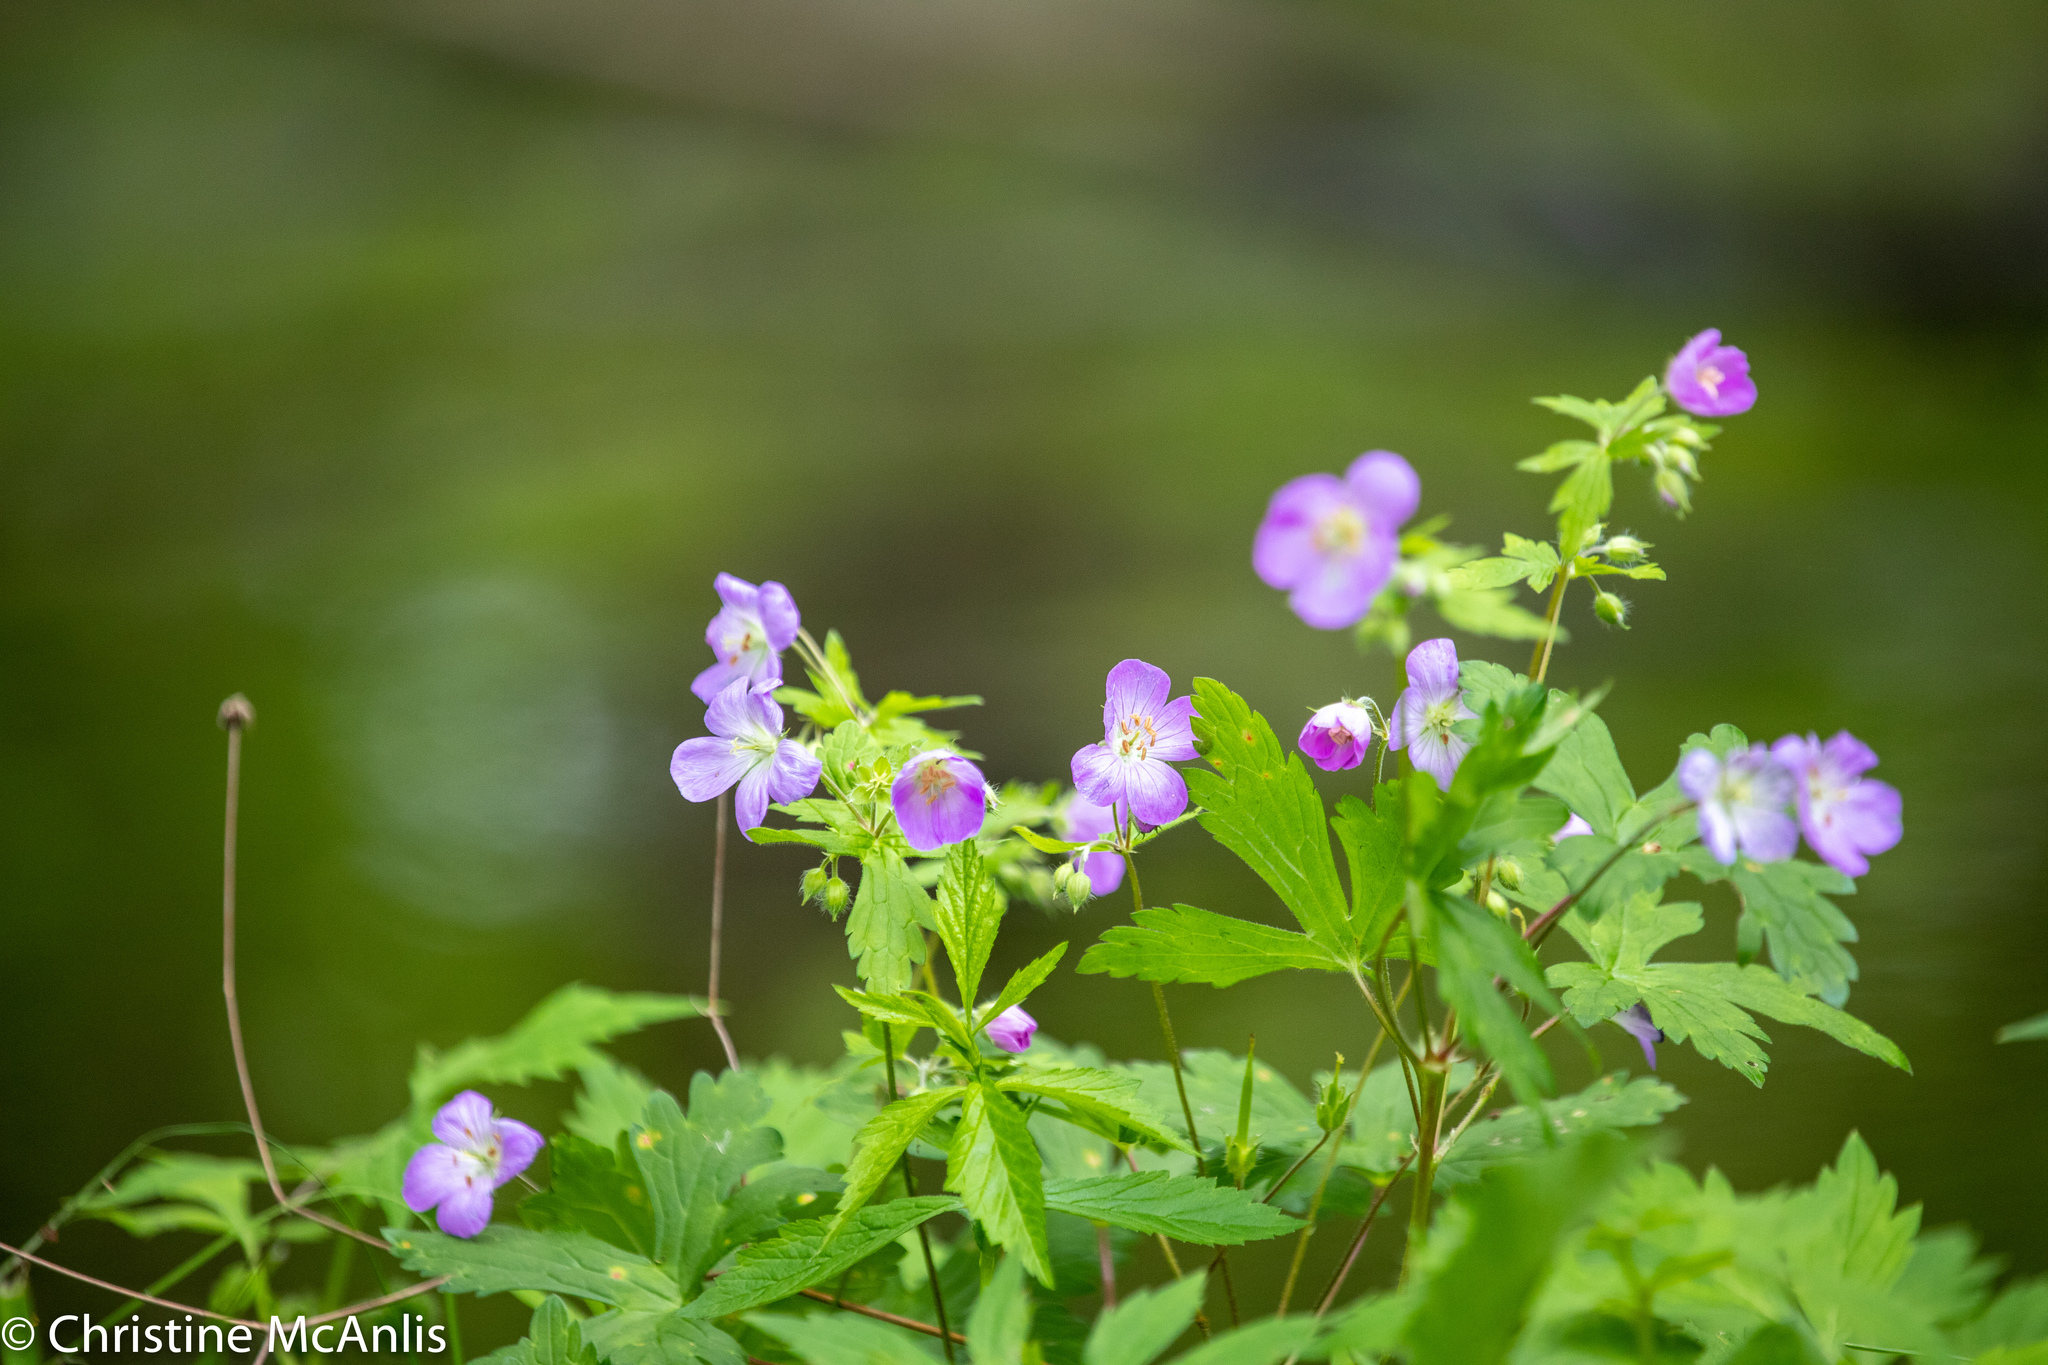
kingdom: Plantae
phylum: Tracheophyta
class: Magnoliopsida
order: Geraniales
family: Geraniaceae
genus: Geranium
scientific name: Geranium maculatum
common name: Spotted geranium
